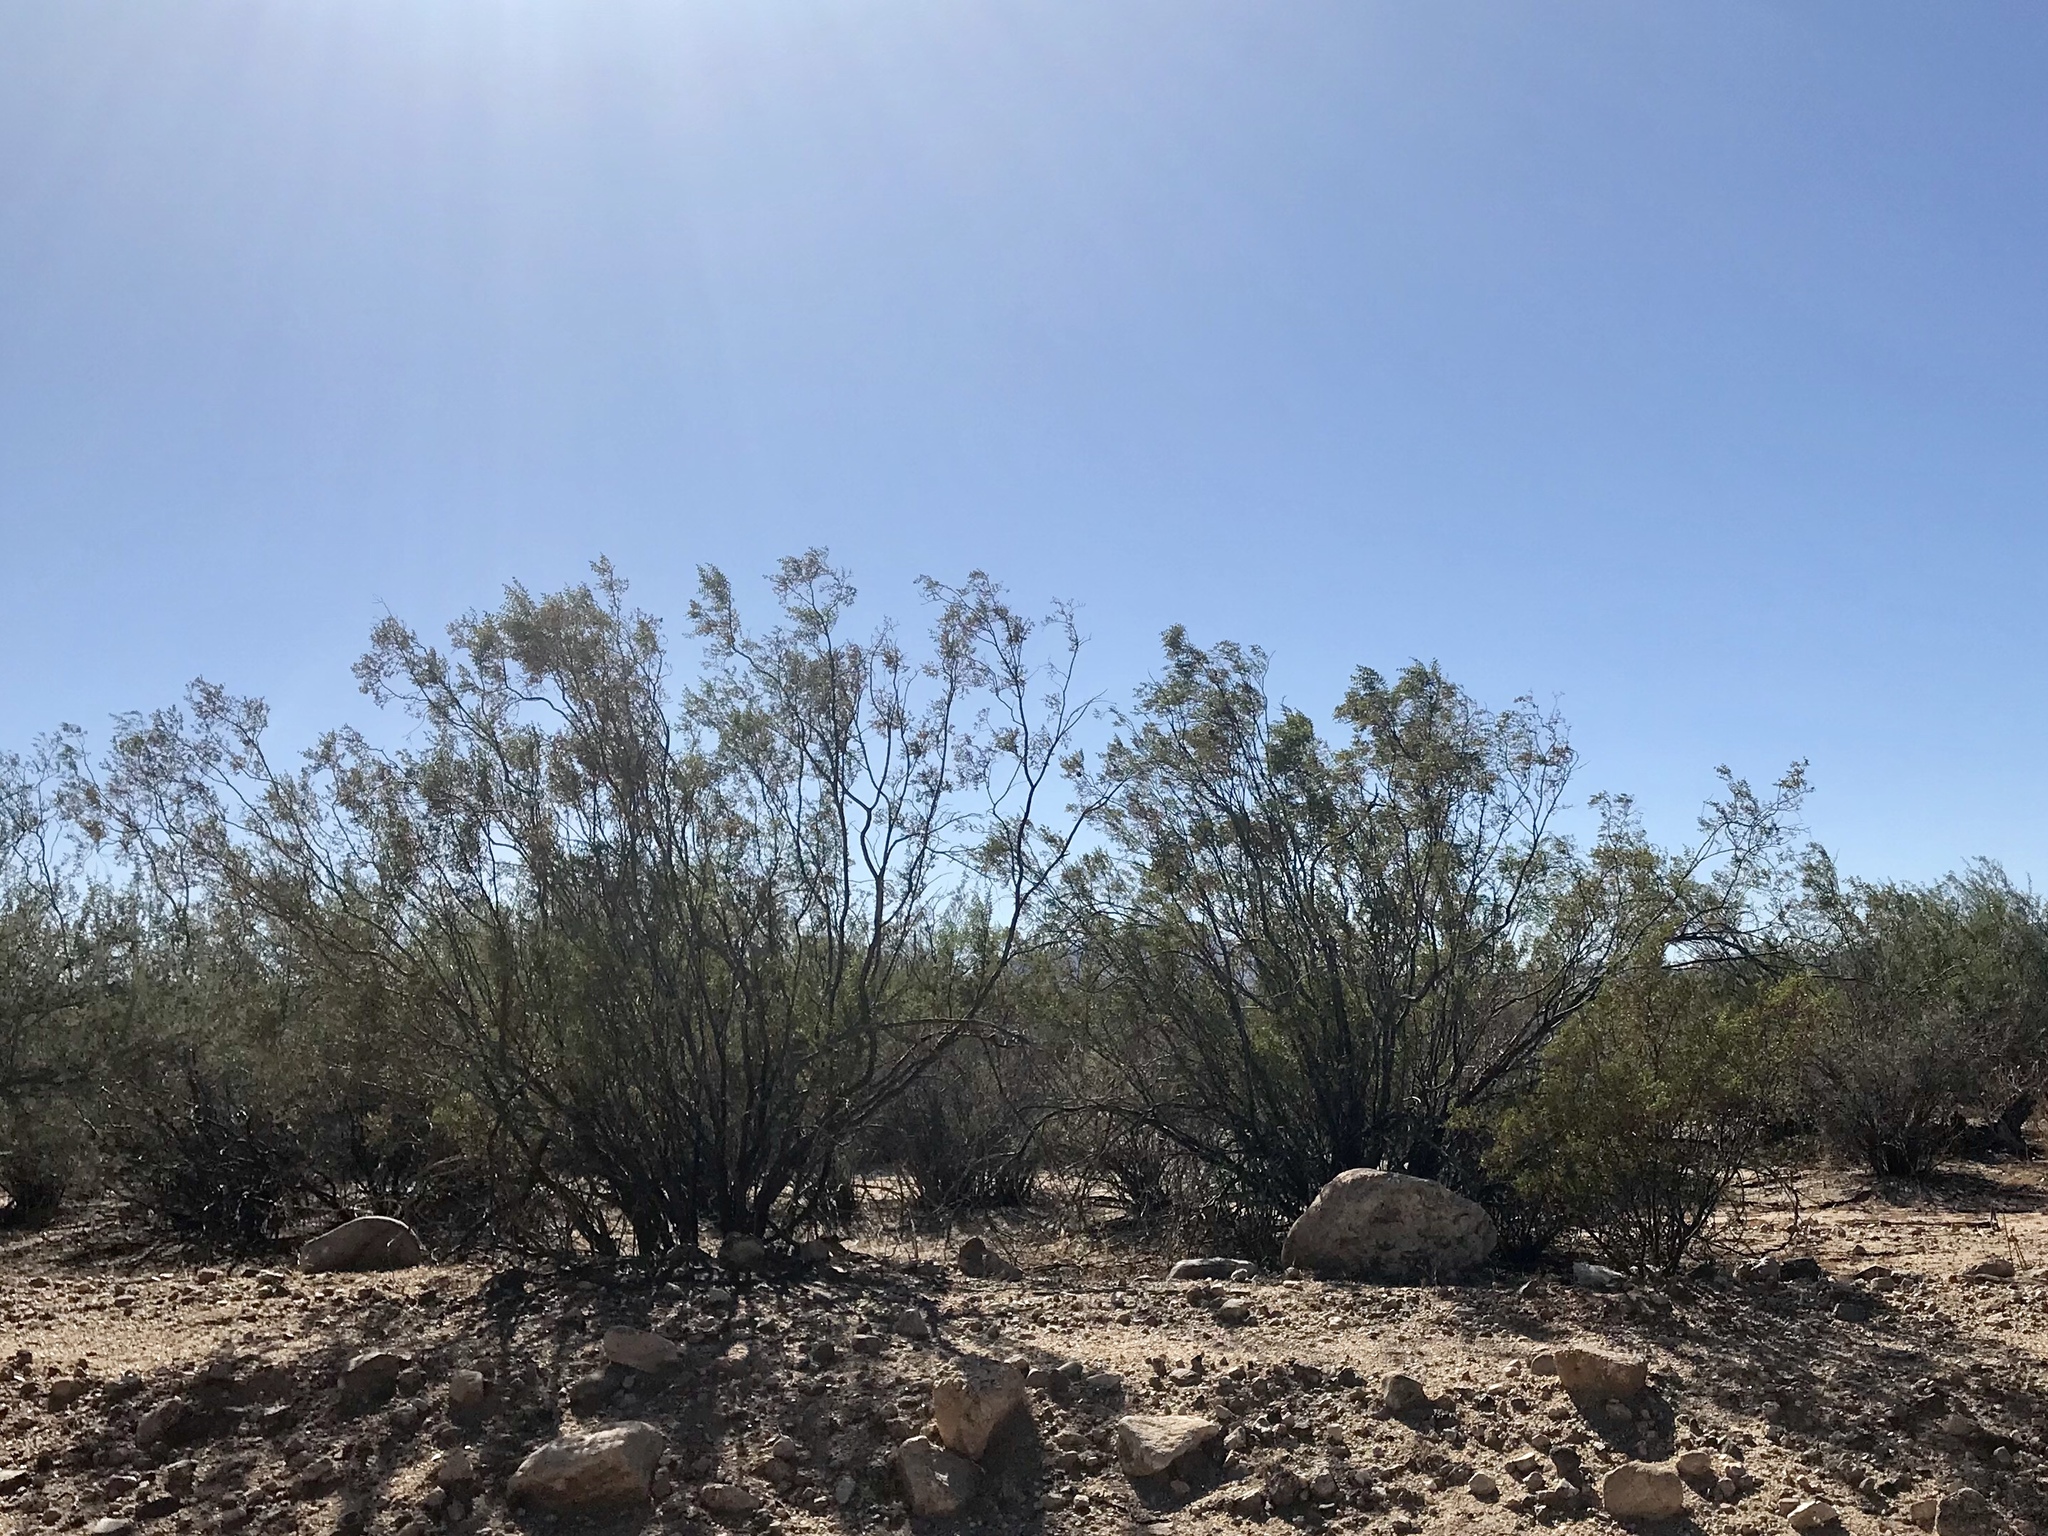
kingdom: Plantae
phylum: Tracheophyta
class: Magnoliopsida
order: Zygophyllales
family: Zygophyllaceae
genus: Larrea
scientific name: Larrea tridentata
